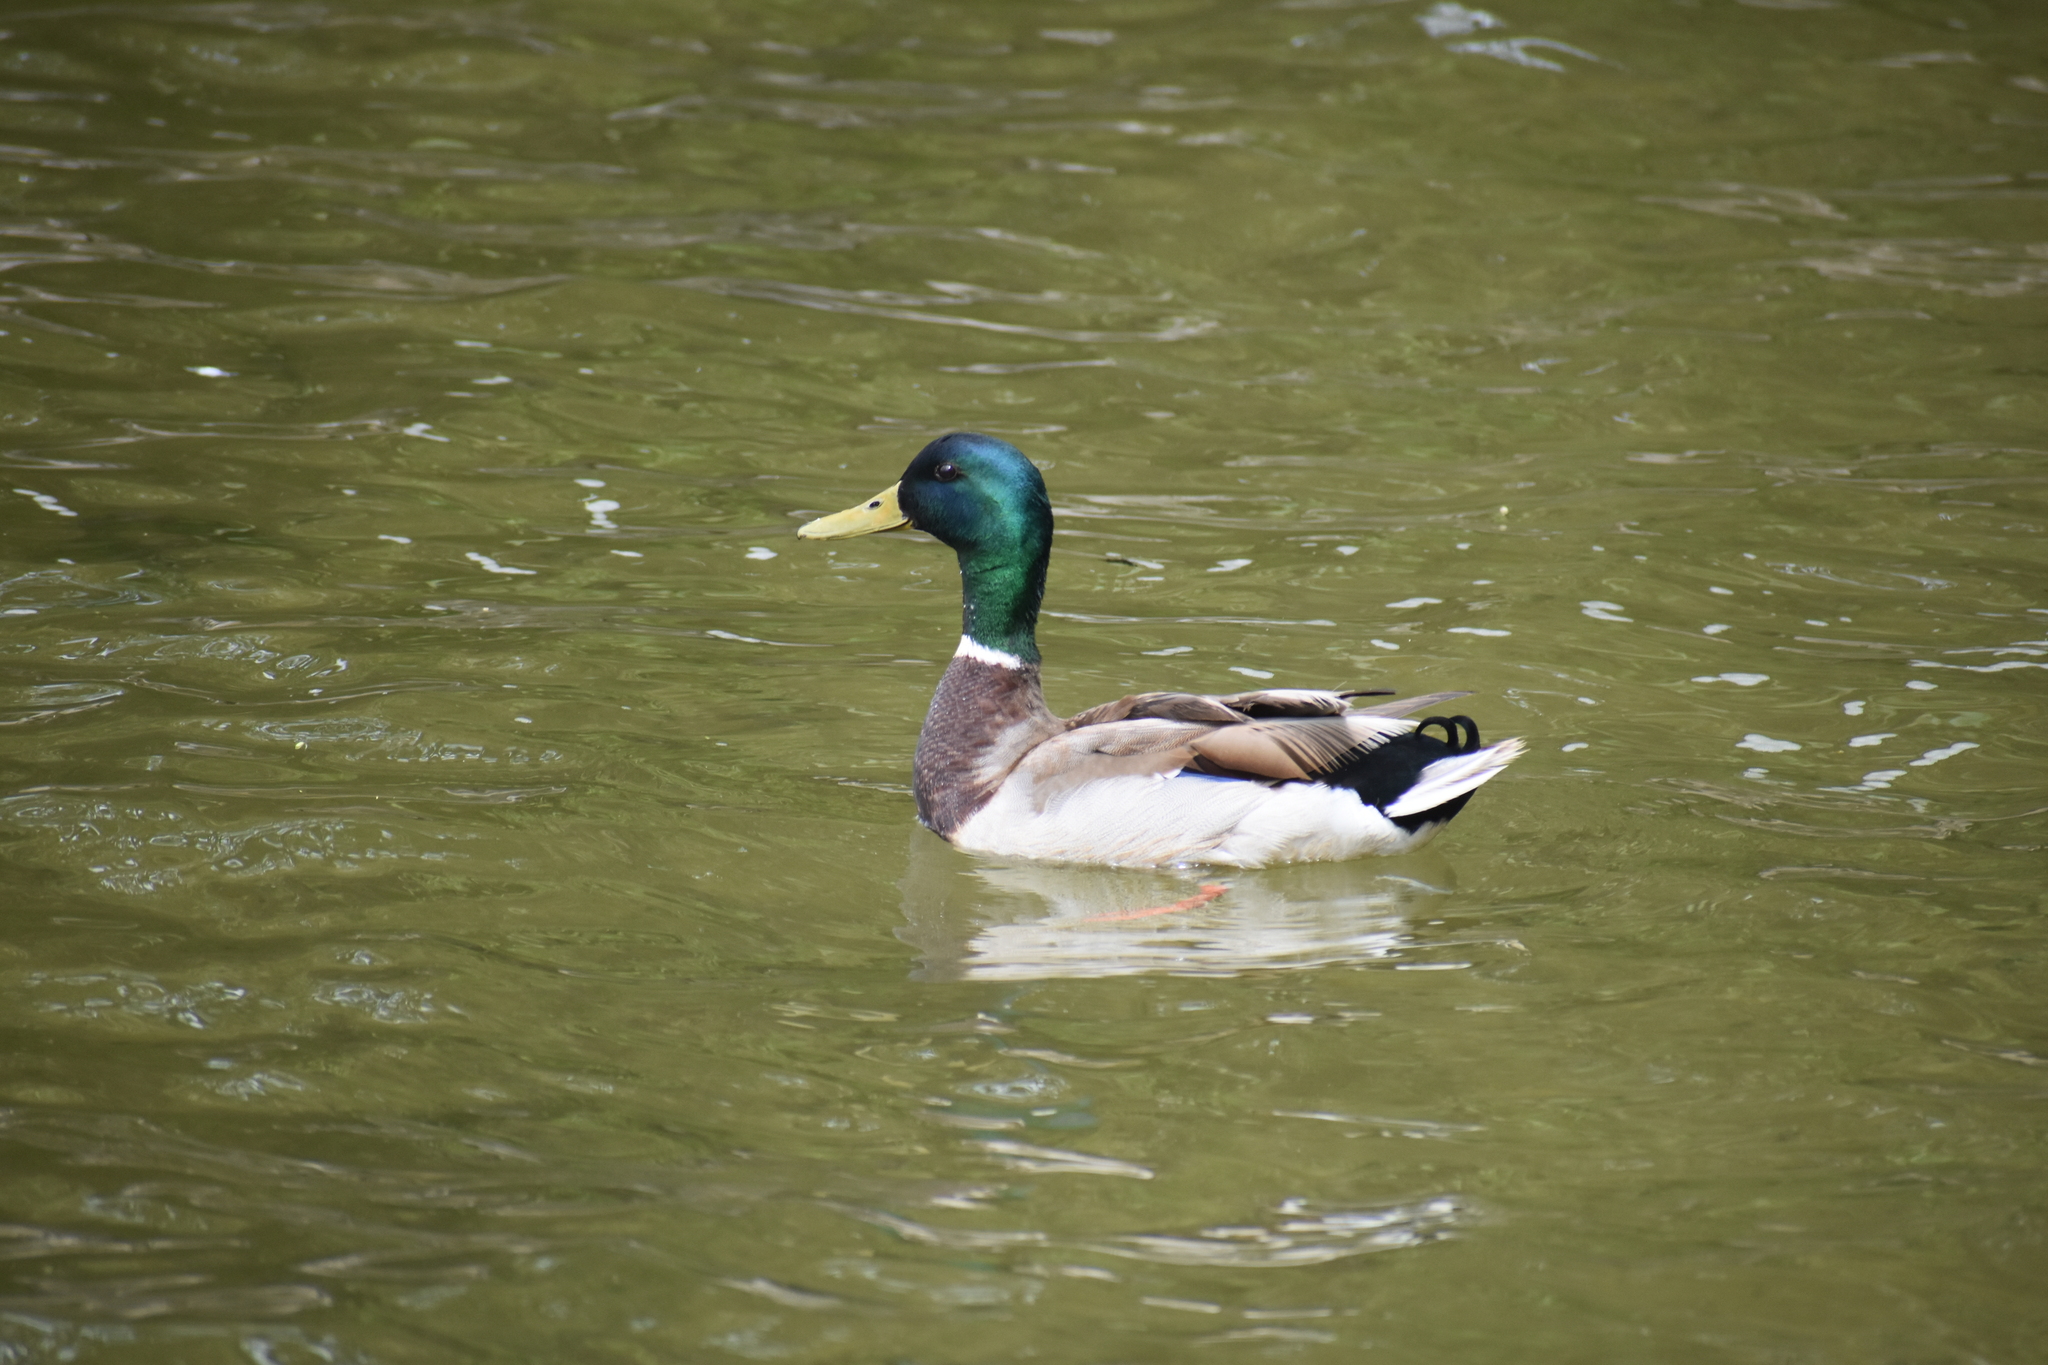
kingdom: Animalia
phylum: Chordata
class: Aves
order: Anseriformes
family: Anatidae
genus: Anas
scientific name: Anas platyrhynchos
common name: Mallard
